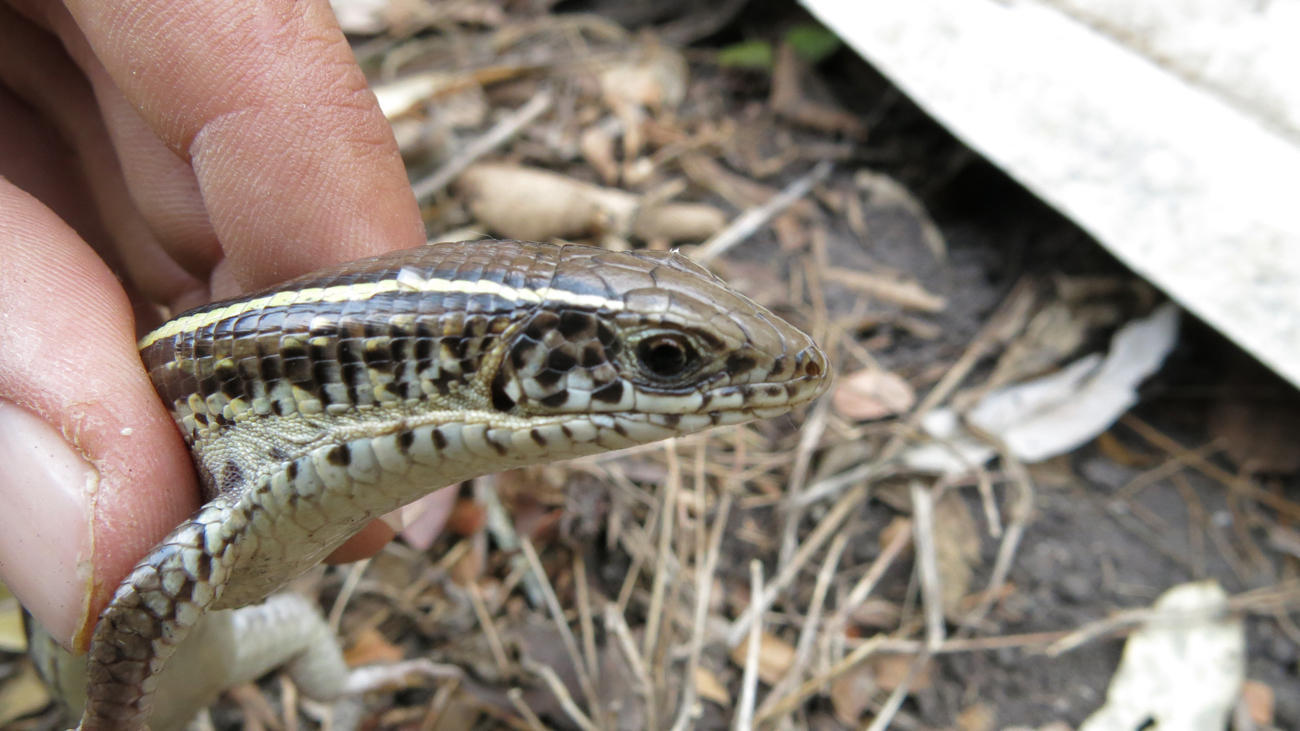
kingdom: Animalia
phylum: Chordata
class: Squamata
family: Gerrhosauridae
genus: Gerrhosaurus
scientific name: Gerrhosaurus flavigularis
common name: Yellow-throated plated lizard
